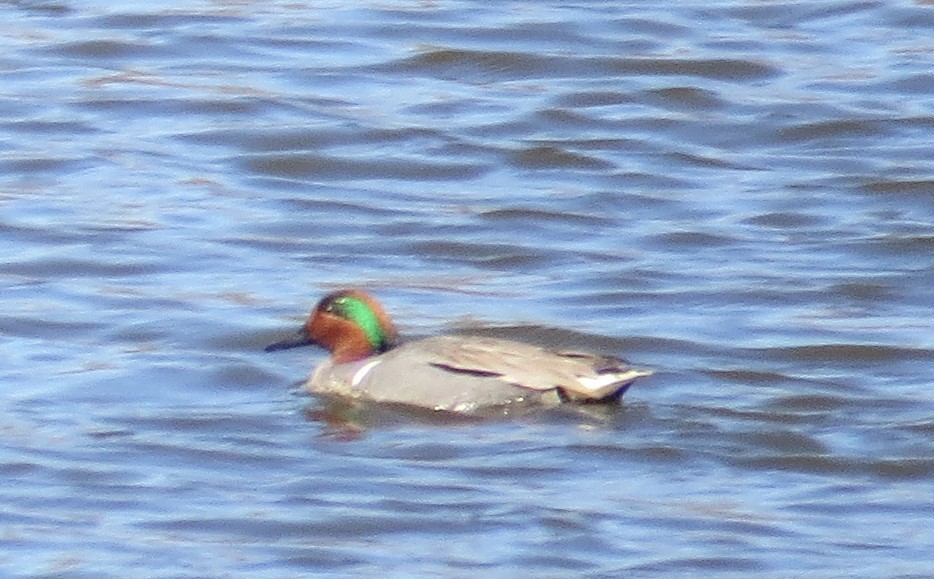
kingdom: Animalia
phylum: Chordata
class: Aves
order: Anseriformes
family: Anatidae
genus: Anas
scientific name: Anas crecca
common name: Eurasian teal
